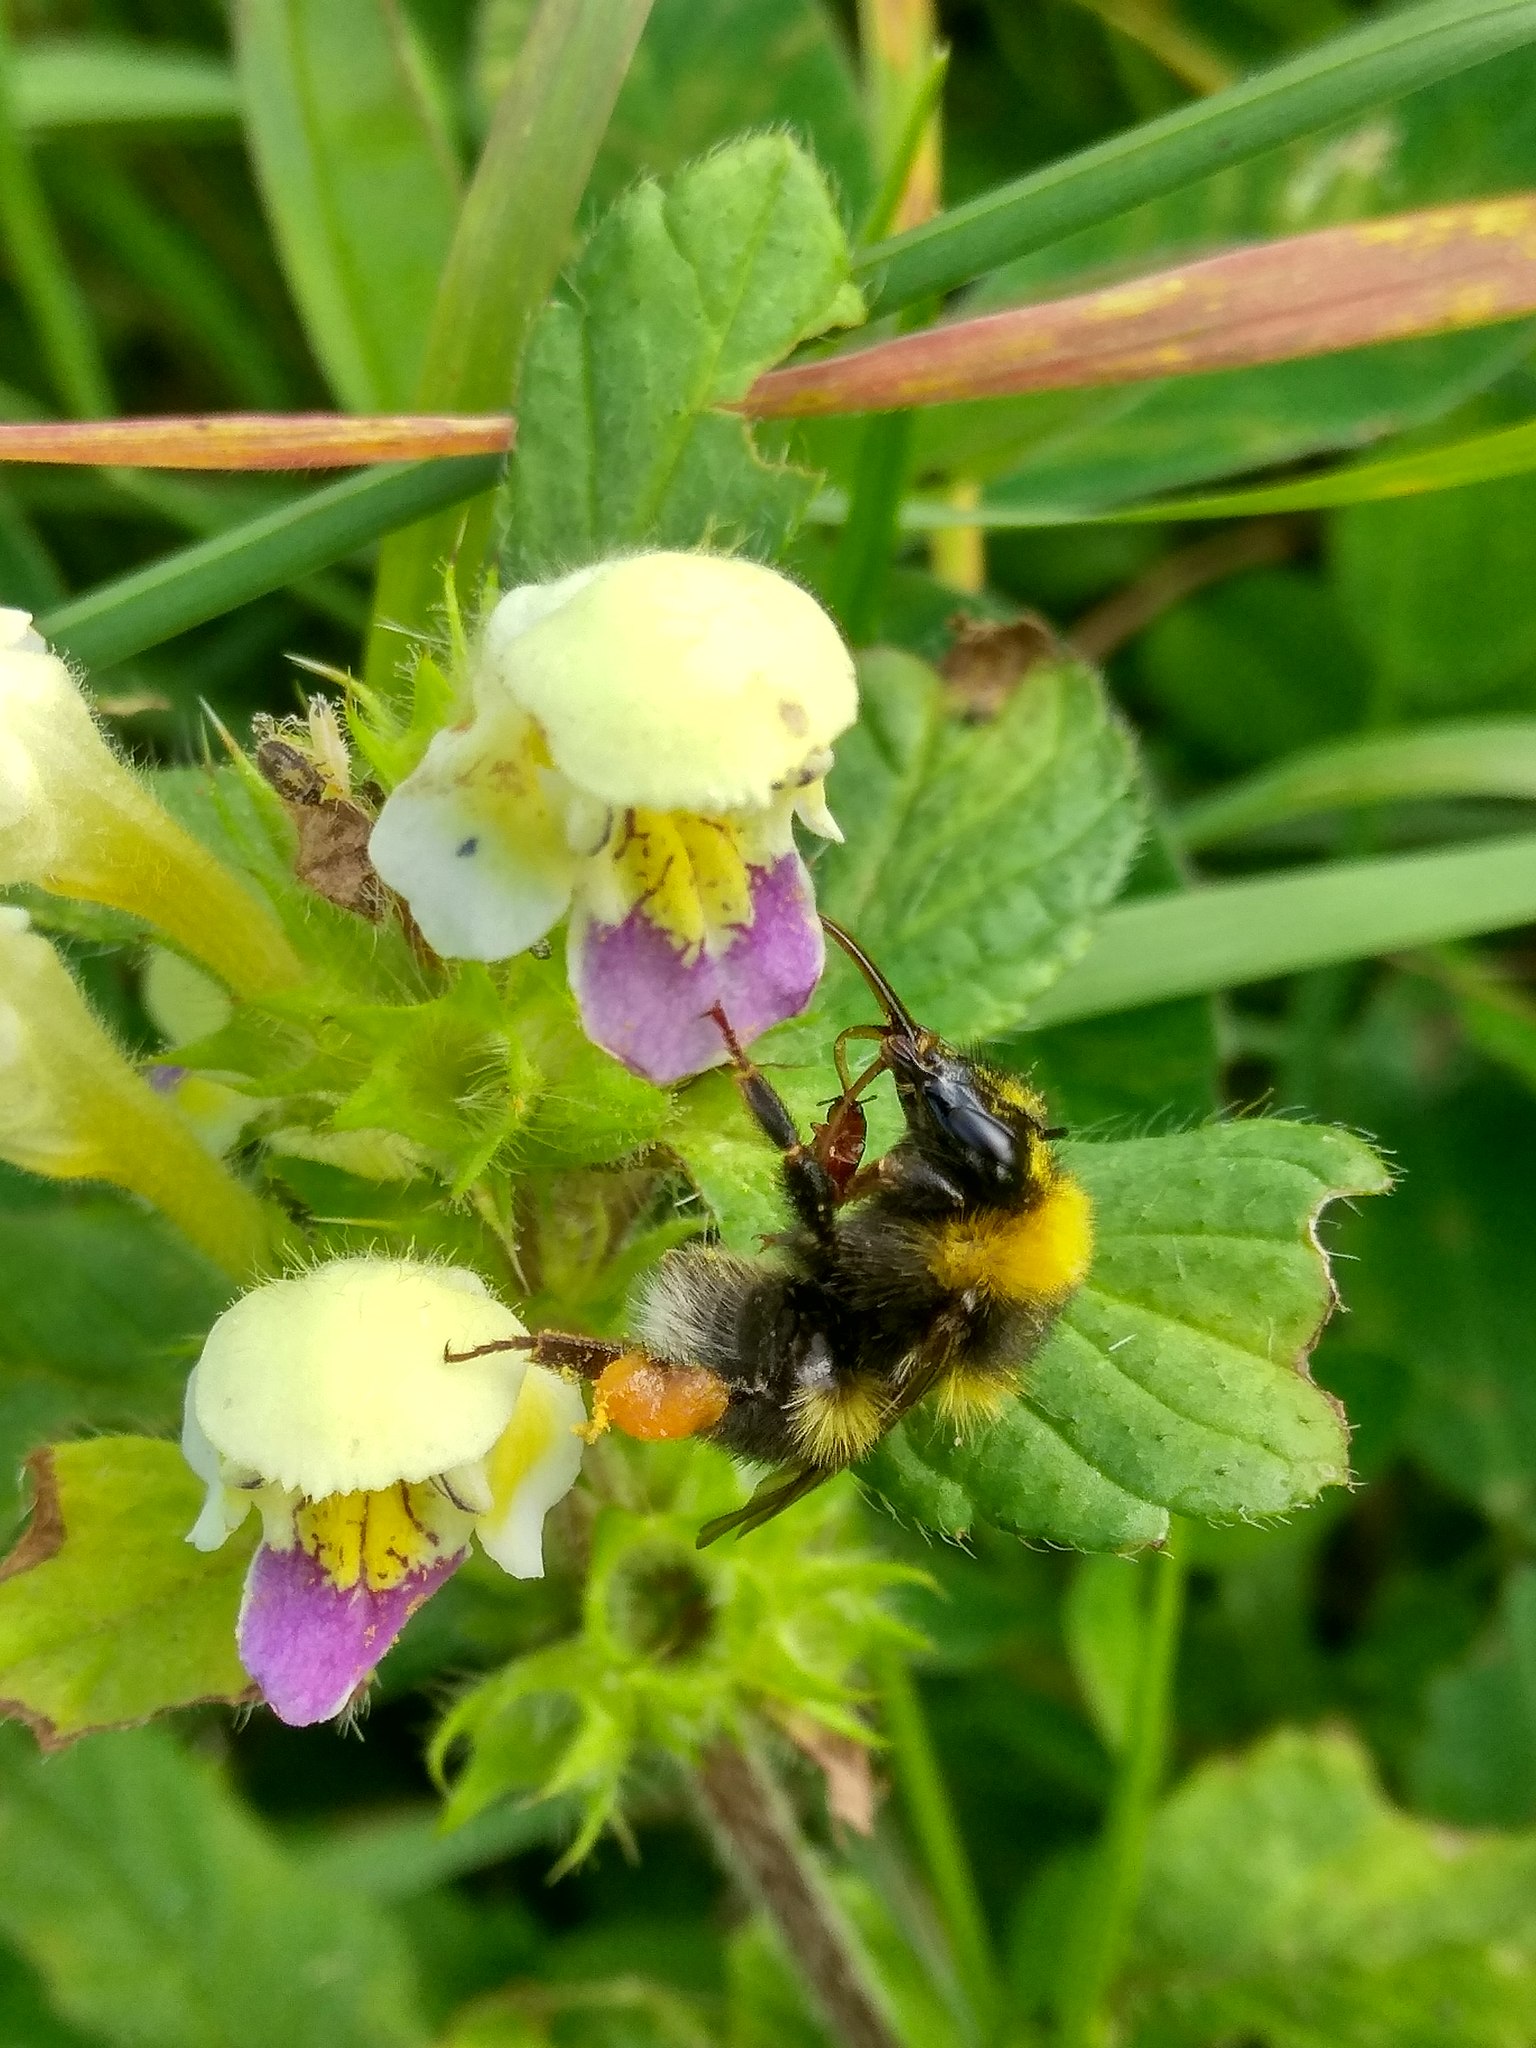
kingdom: Plantae
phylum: Tracheophyta
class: Magnoliopsida
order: Lamiales
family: Lamiaceae
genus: Galeopsis
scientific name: Galeopsis speciosa
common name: Large-flowered hemp-nettle
